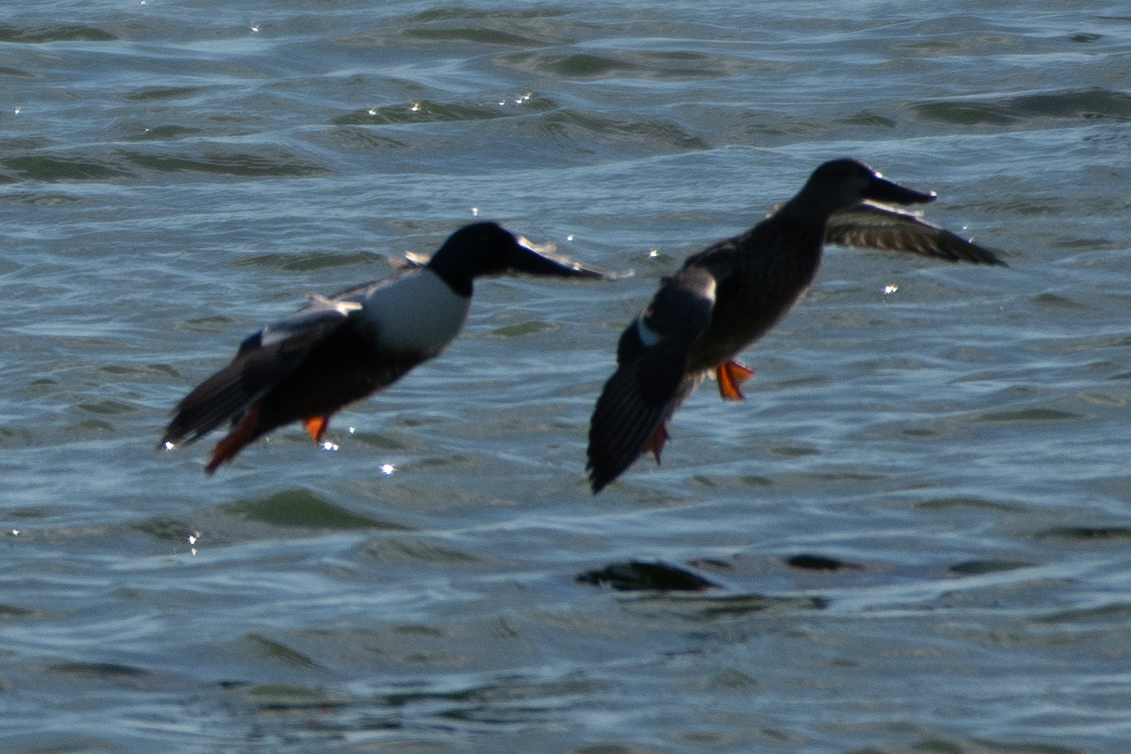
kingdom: Animalia
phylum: Chordata
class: Aves
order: Anseriformes
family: Anatidae
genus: Spatula
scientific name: Spatula clypeata
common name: Northern shoveler
